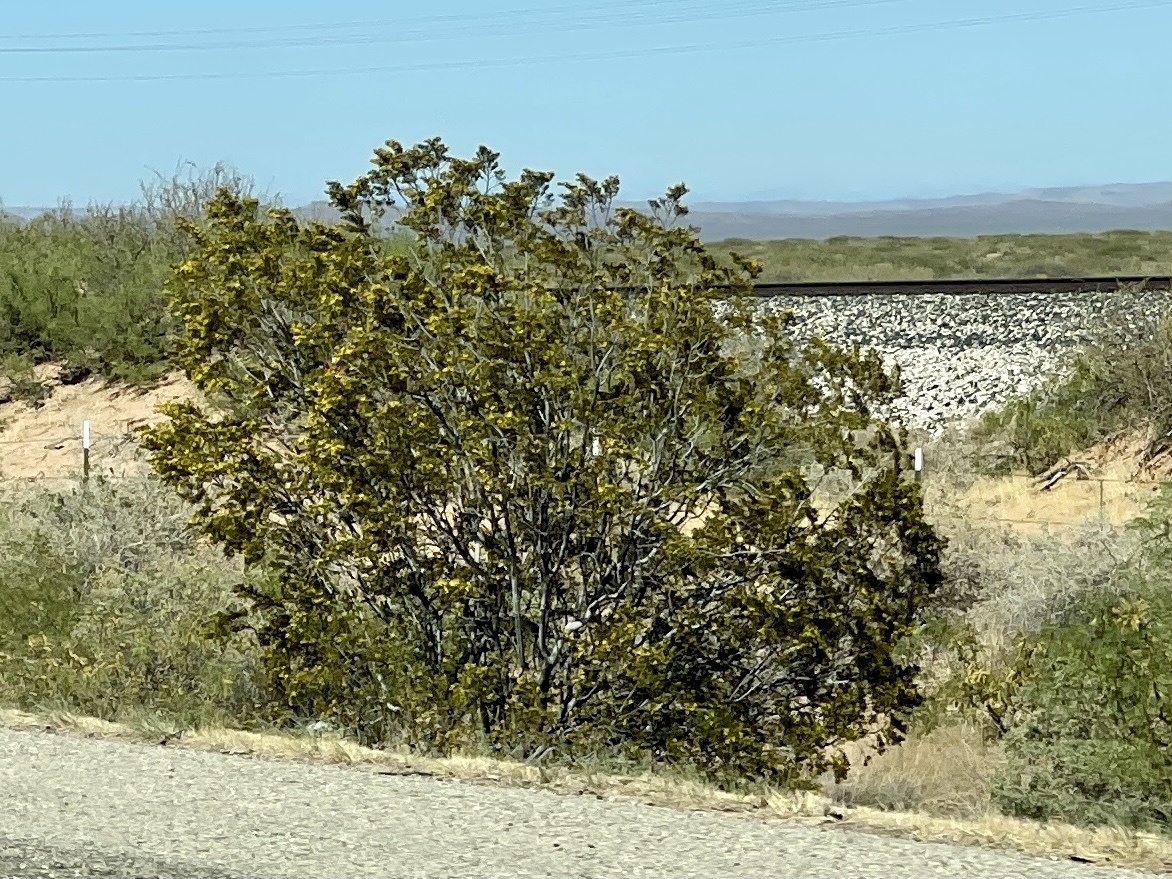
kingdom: Plantae
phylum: Tracheophyta
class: Magnoliopsida
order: Zygophyllales
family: Zygophyllaceae
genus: Larrea
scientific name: Larrea tridentata
